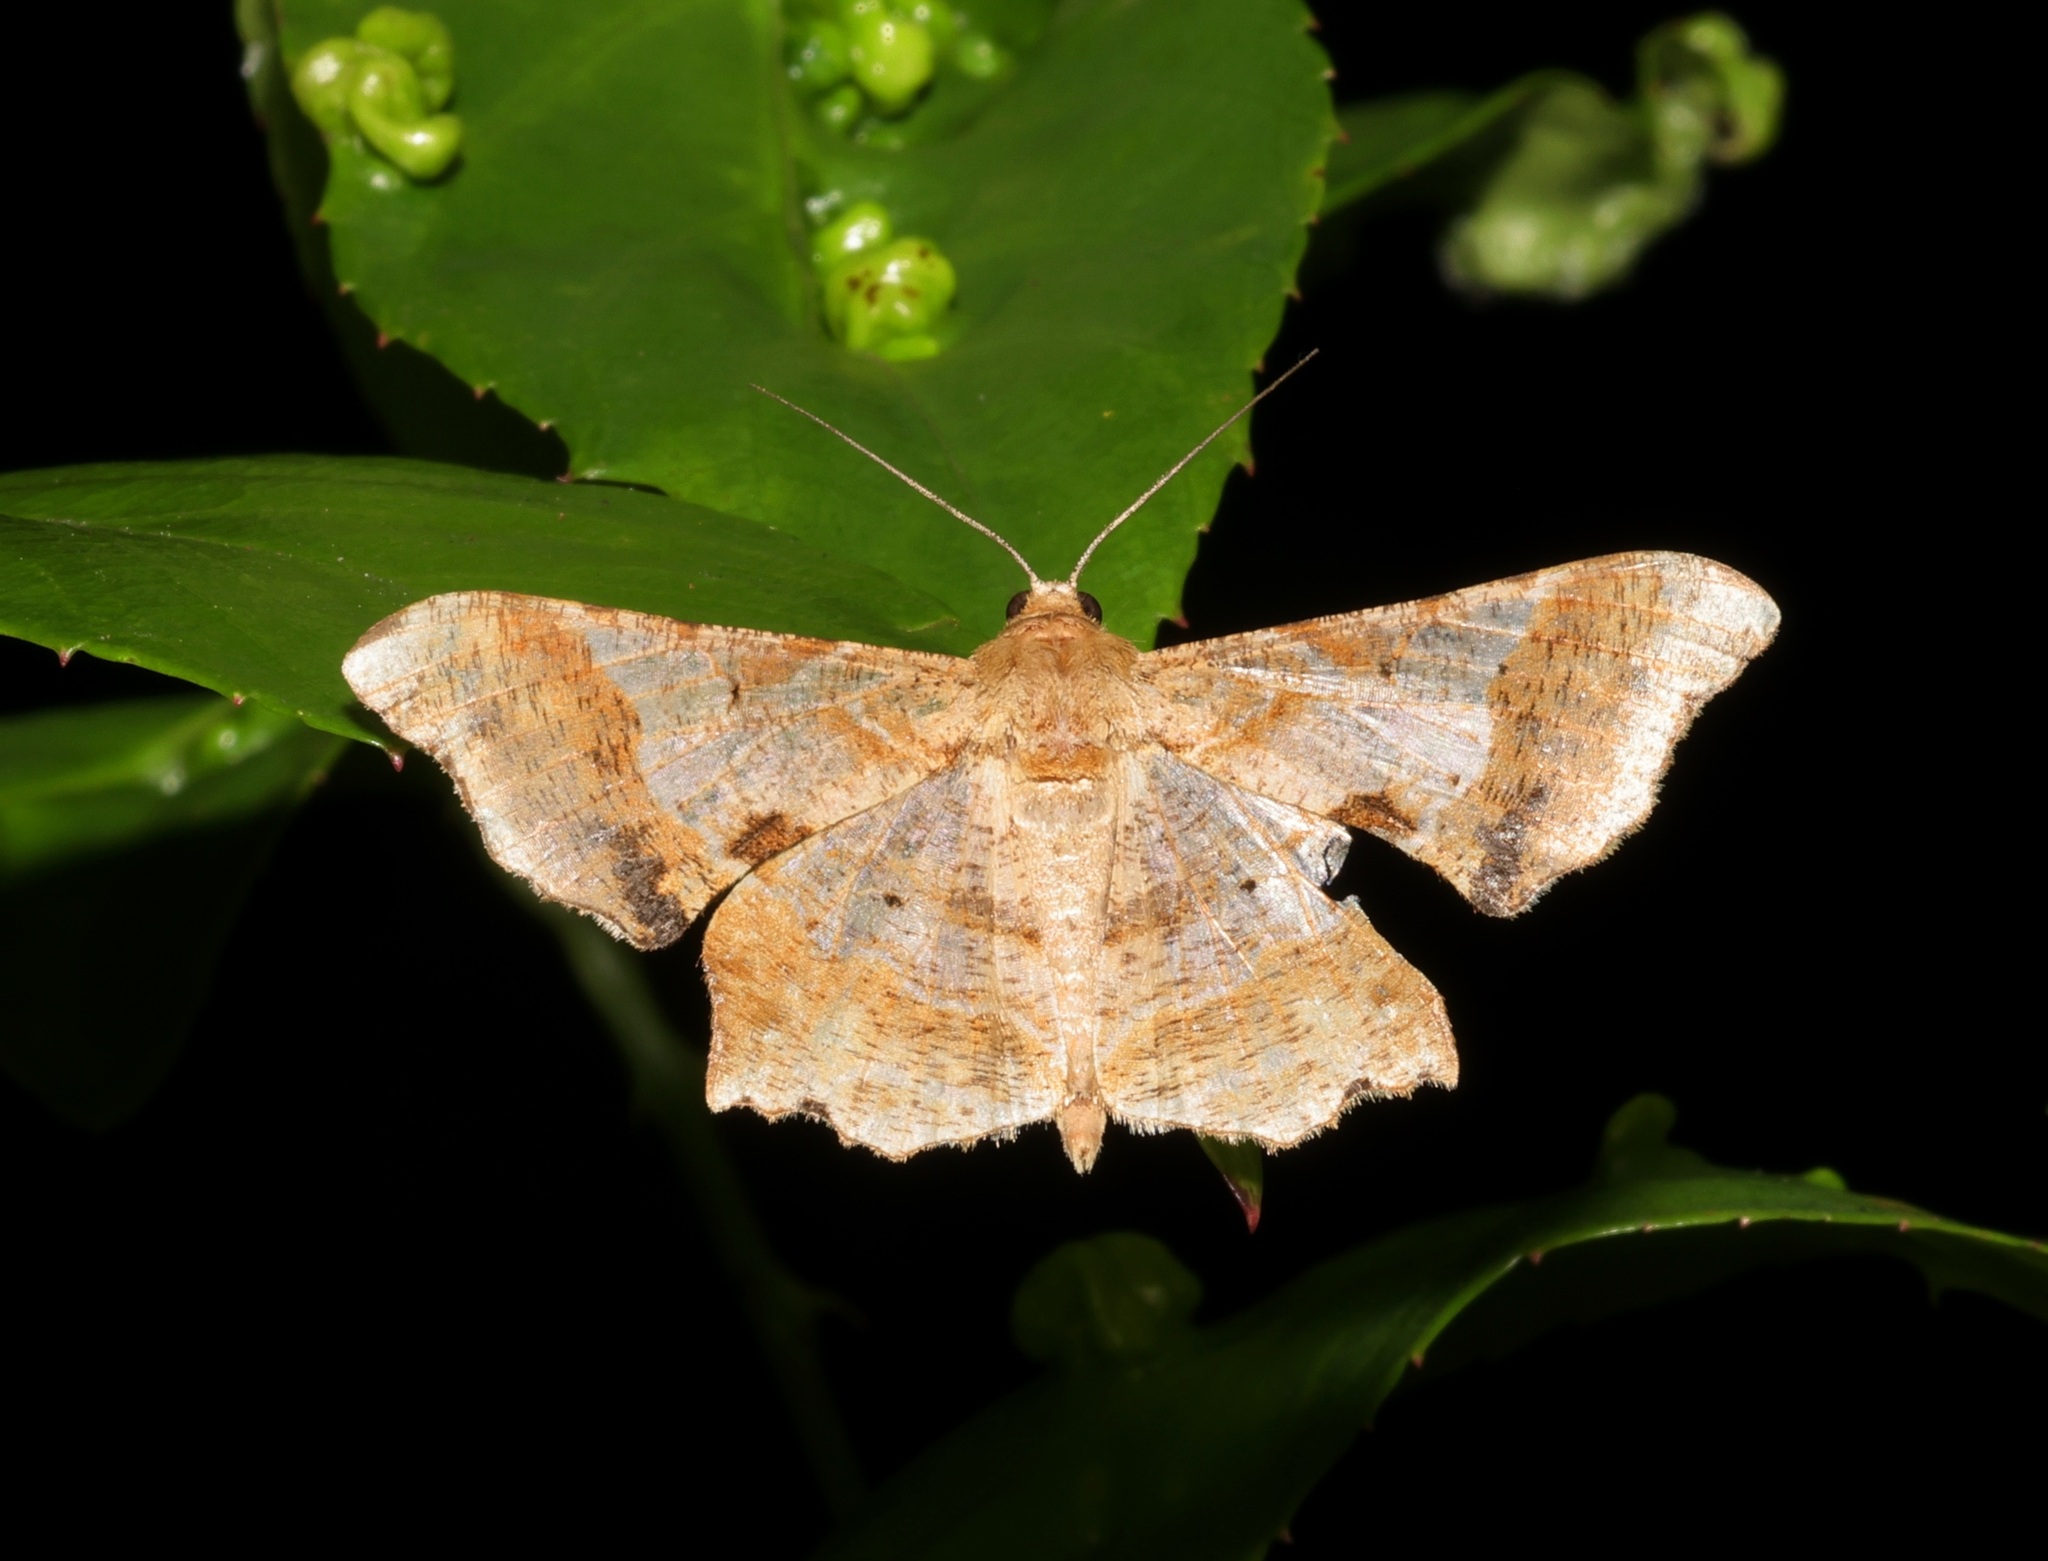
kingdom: Animalia
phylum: Arthropoda
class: Insecta
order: Lepidoptera
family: Geometridae
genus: Krananda
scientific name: Krananda oliveomarginata
